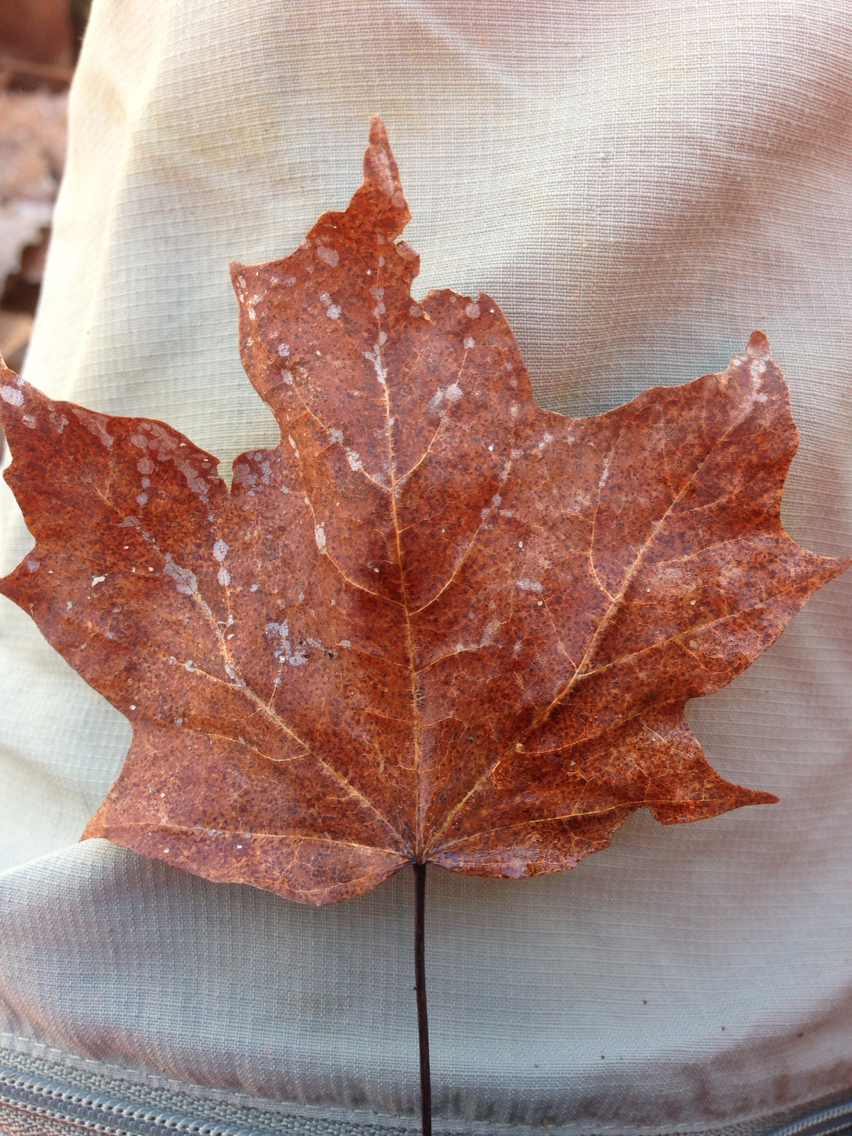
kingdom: Plantae
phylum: Tracheophyta
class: Magnoliopsida
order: Sapindales
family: Sapindaceae
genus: Acer
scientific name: Acer saccharum
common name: Sugar maple
